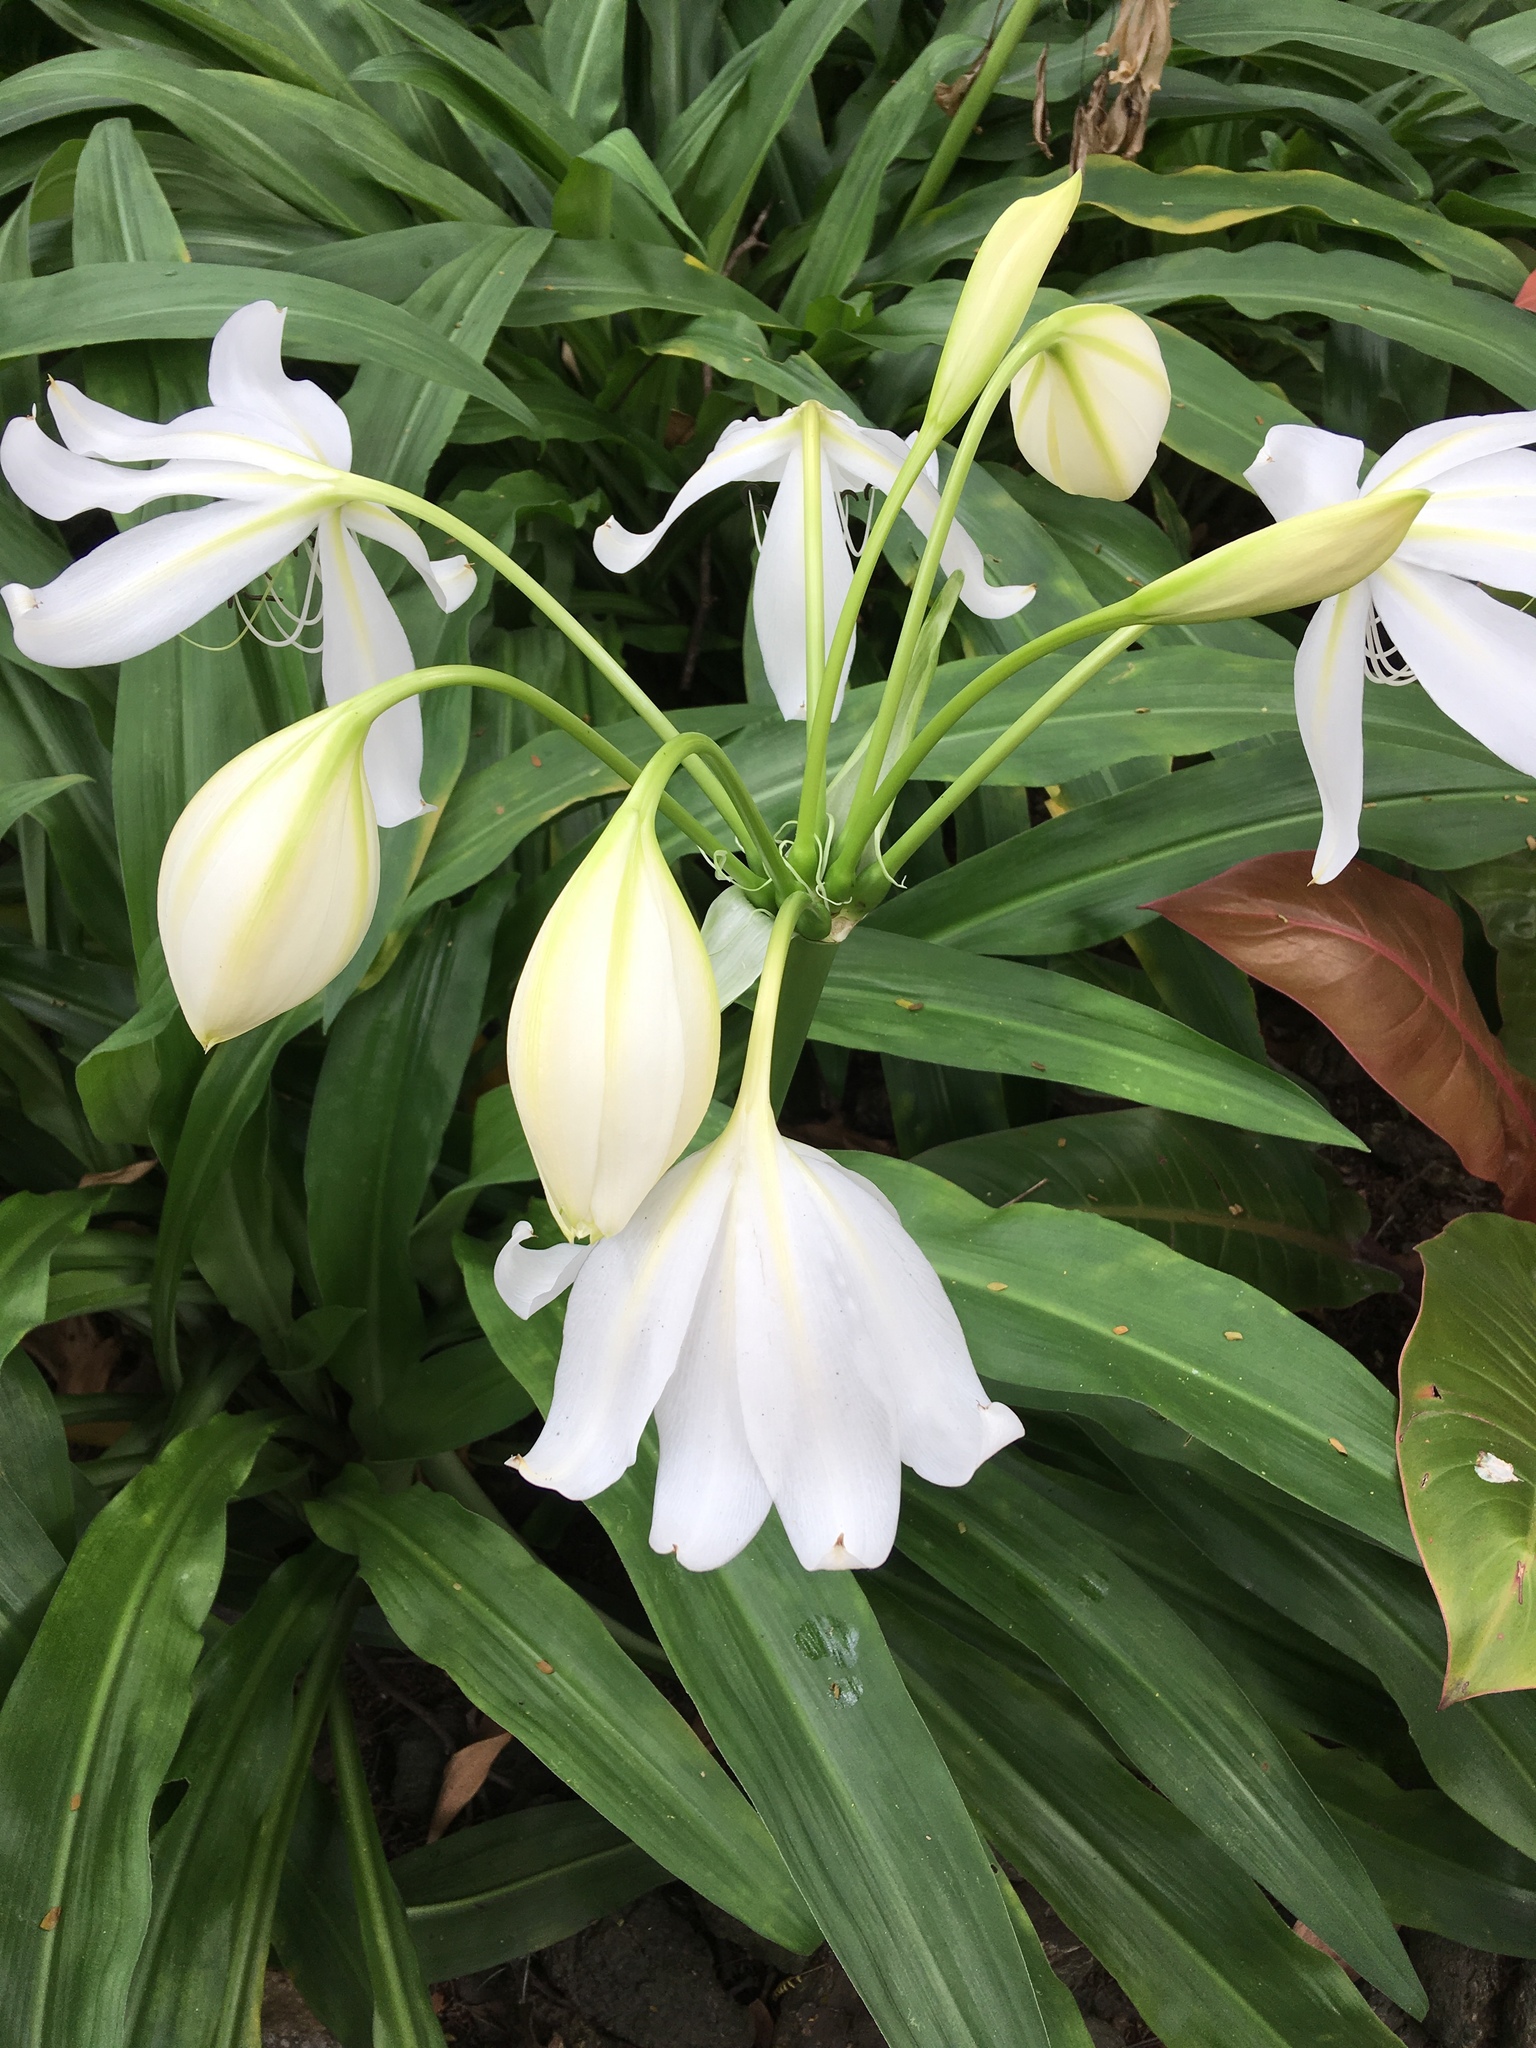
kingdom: Plantae
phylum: Tracheophyta
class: Liliopsida
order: Zingiberales
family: Zingiberaceae
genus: Hedychium
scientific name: Hedychium coronarium
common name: White garland-lily
